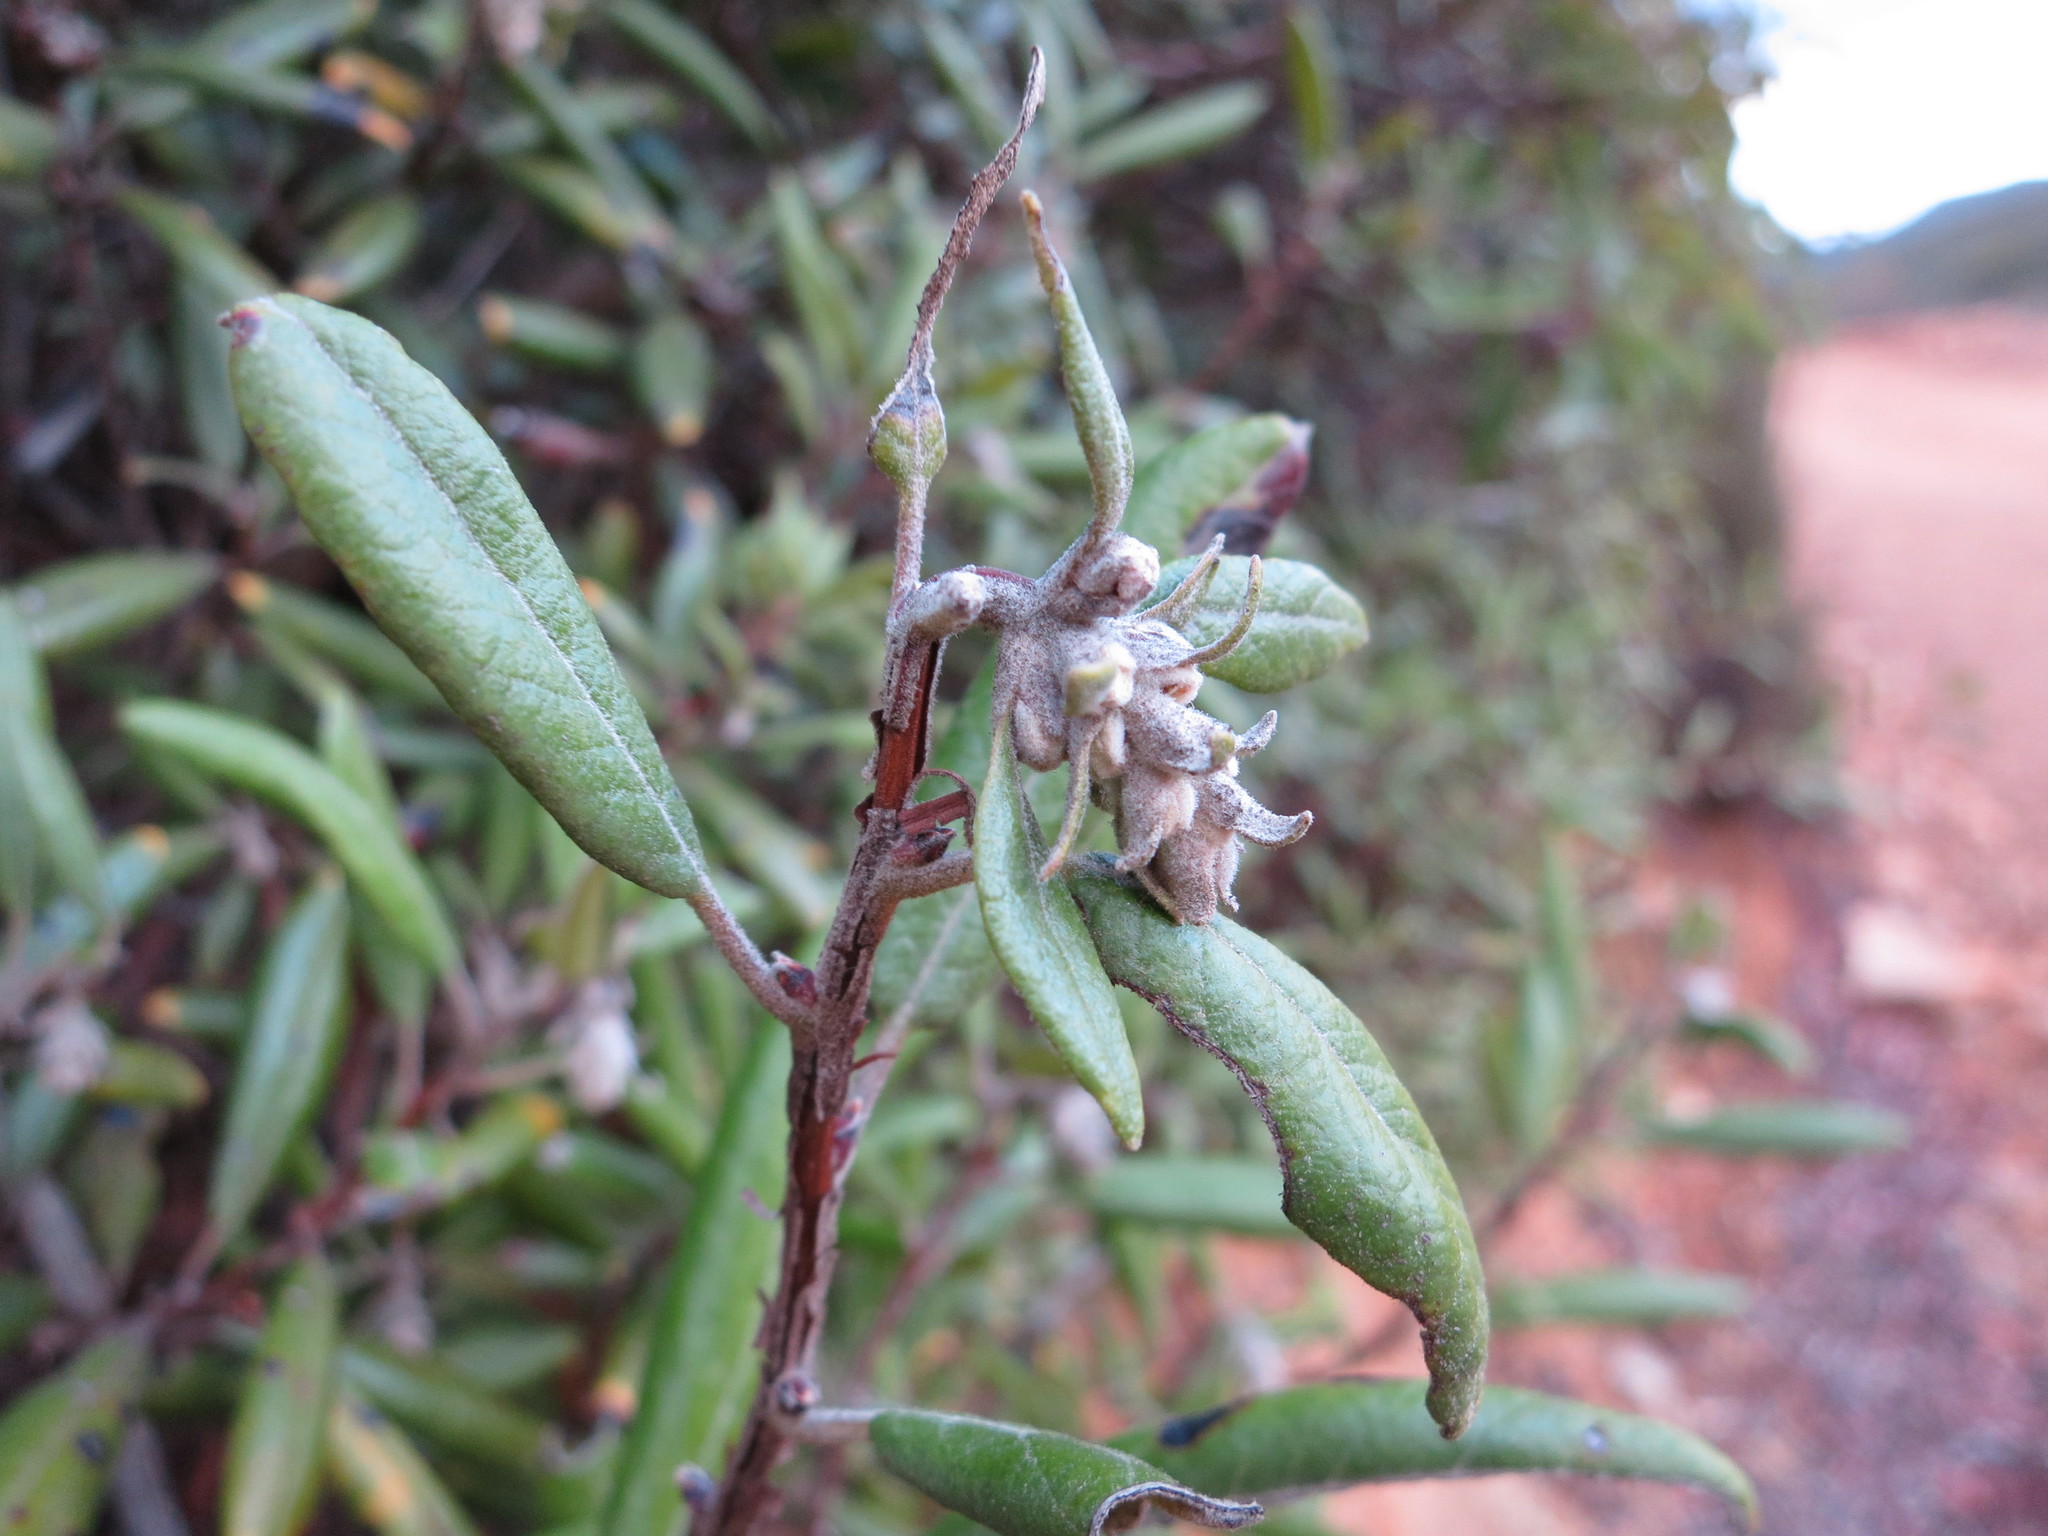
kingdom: Plantae
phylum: Tracheophyta
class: Magnoliopsida
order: Ericales
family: Ericaceae
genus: Arctostaphylos
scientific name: Arctostaphylos bicolor
